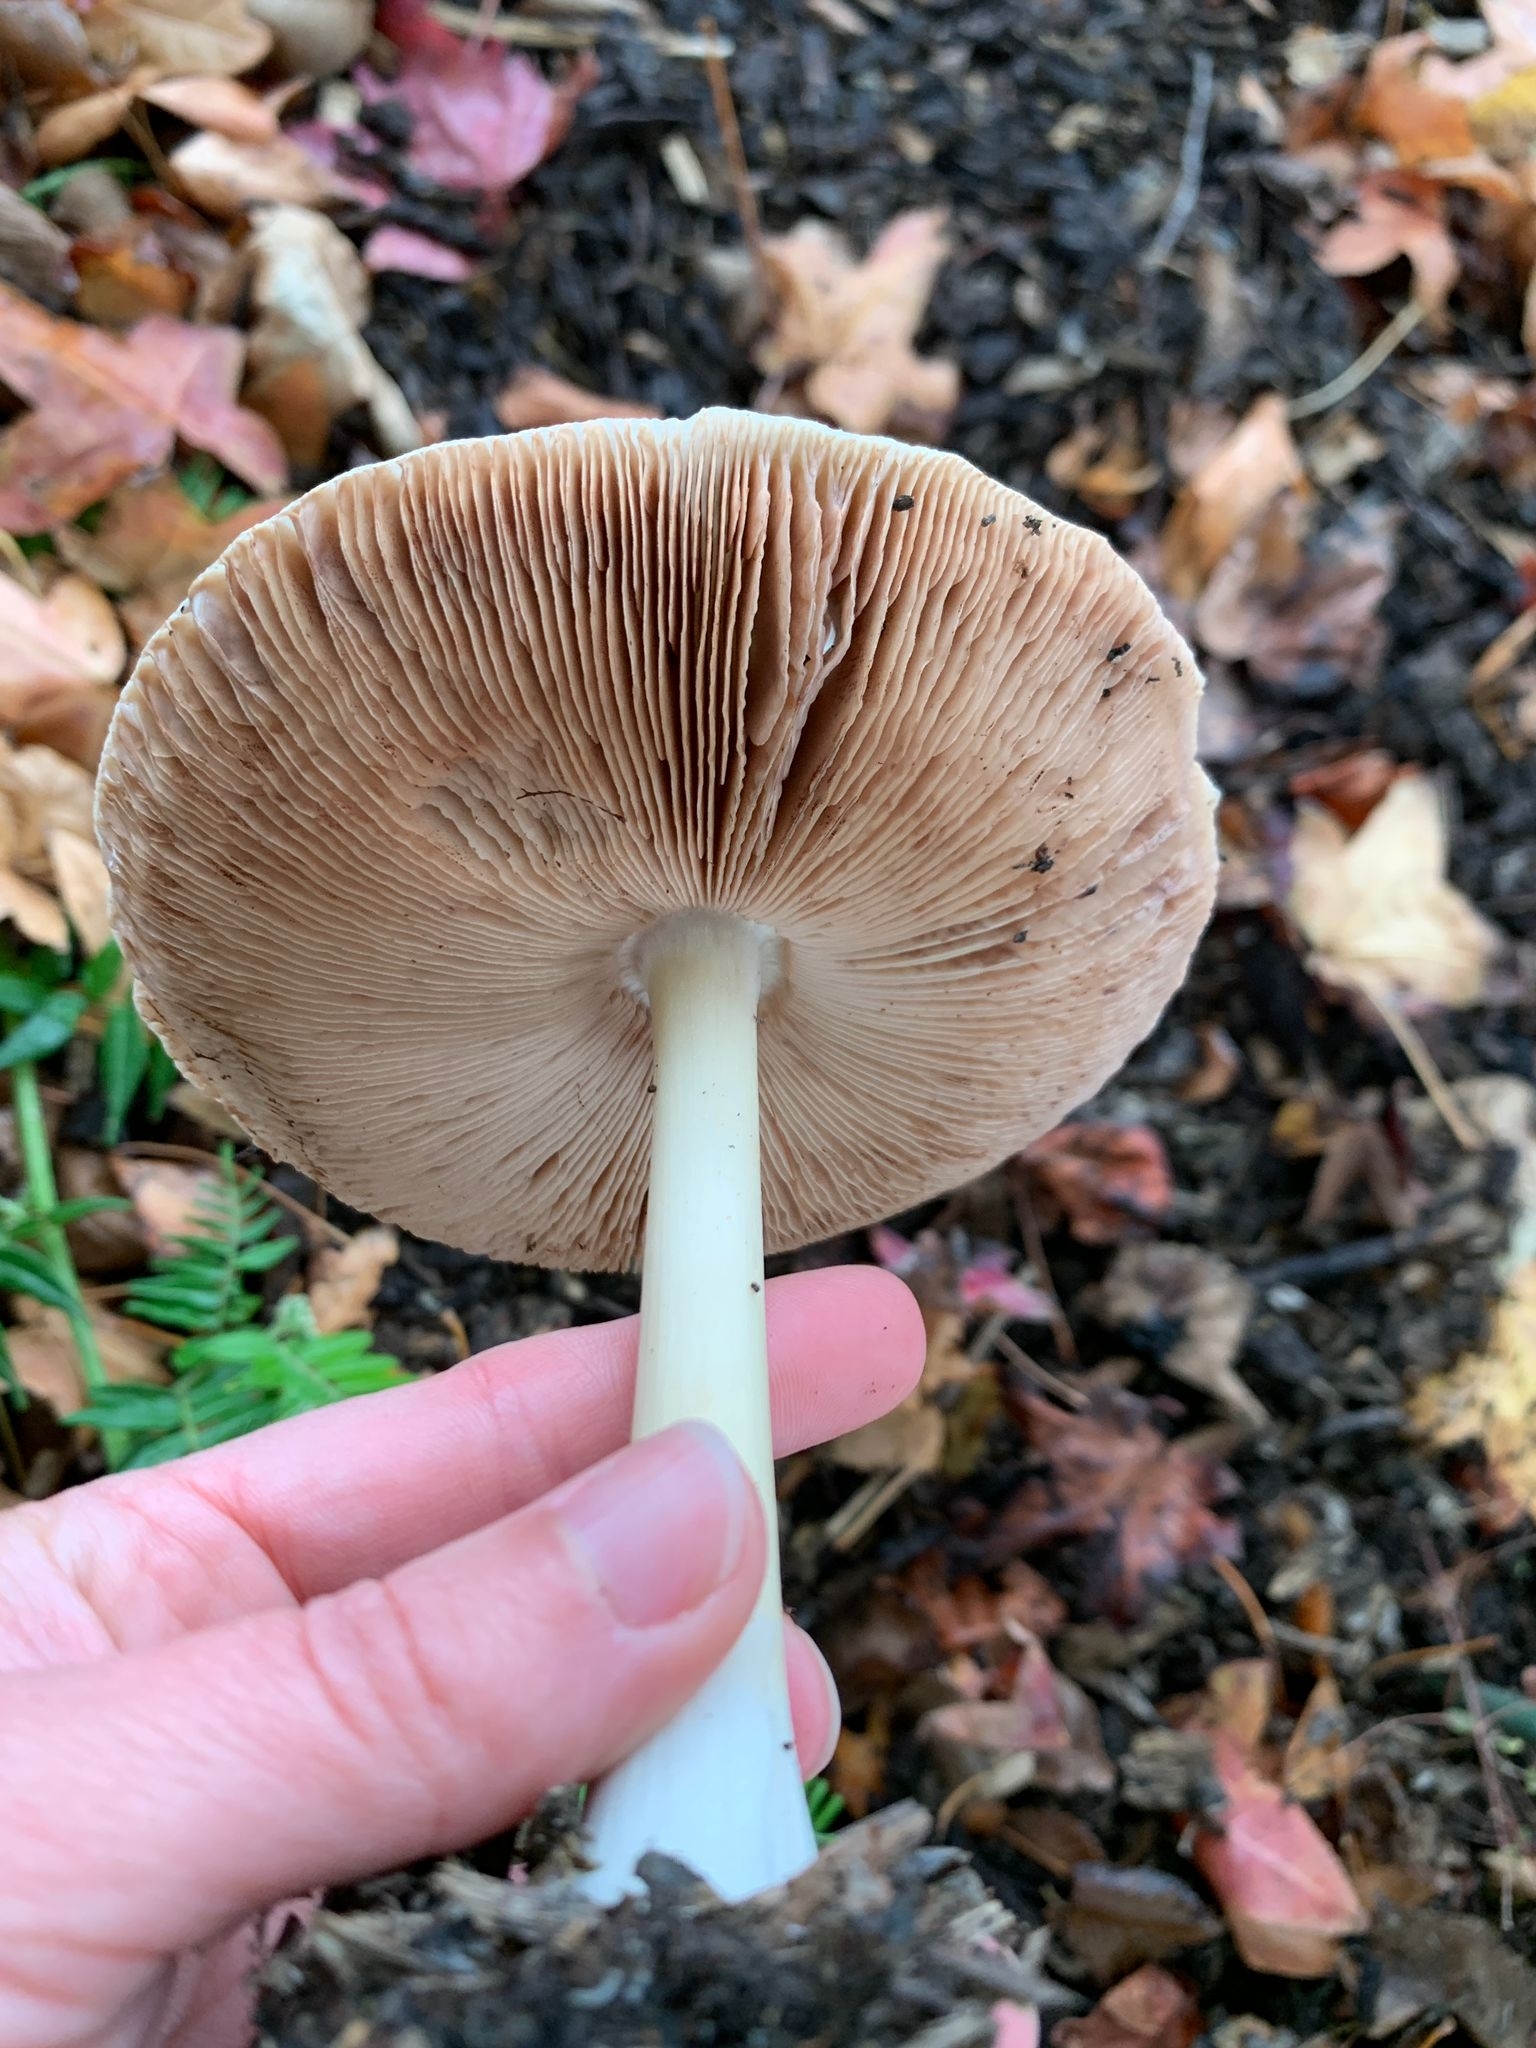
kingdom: Fungi
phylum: Basidiomycota
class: Agaricomycetes
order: Agaricales
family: Pluteaceae
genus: Volvopluteus
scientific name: Volvopluteus gloiocephalus
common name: Stubble rosegill
